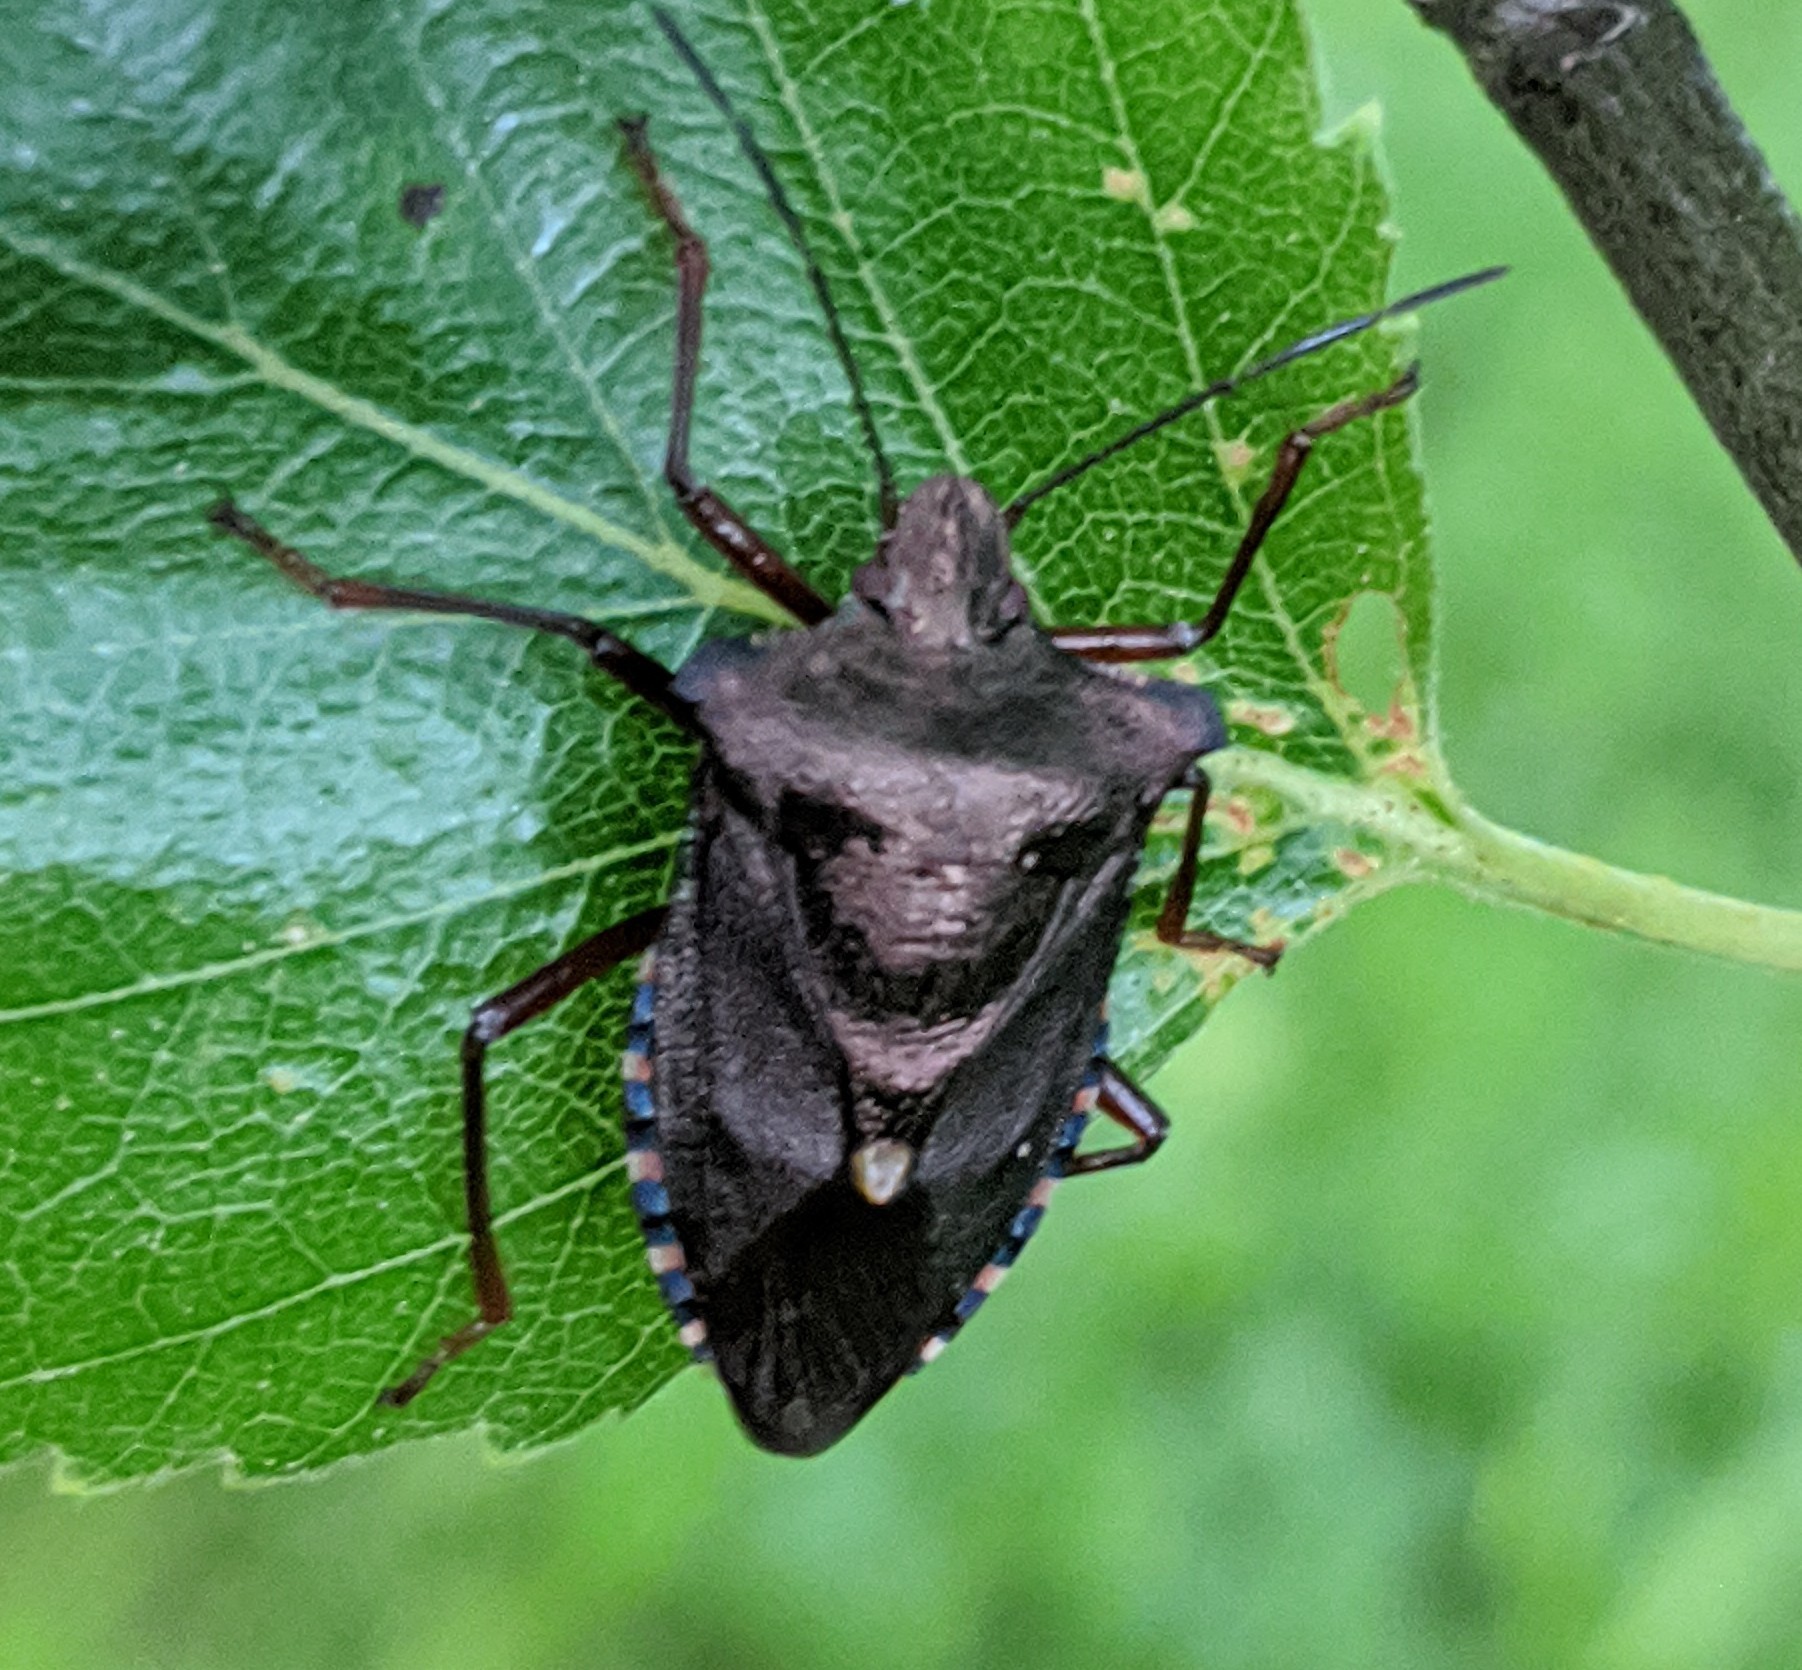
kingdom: Animalia
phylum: Arthropoda
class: Insecta
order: Hemiptera
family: Pentatomidae
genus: Pentatoma
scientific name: Pentatoma rufipes
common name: Forest bug
